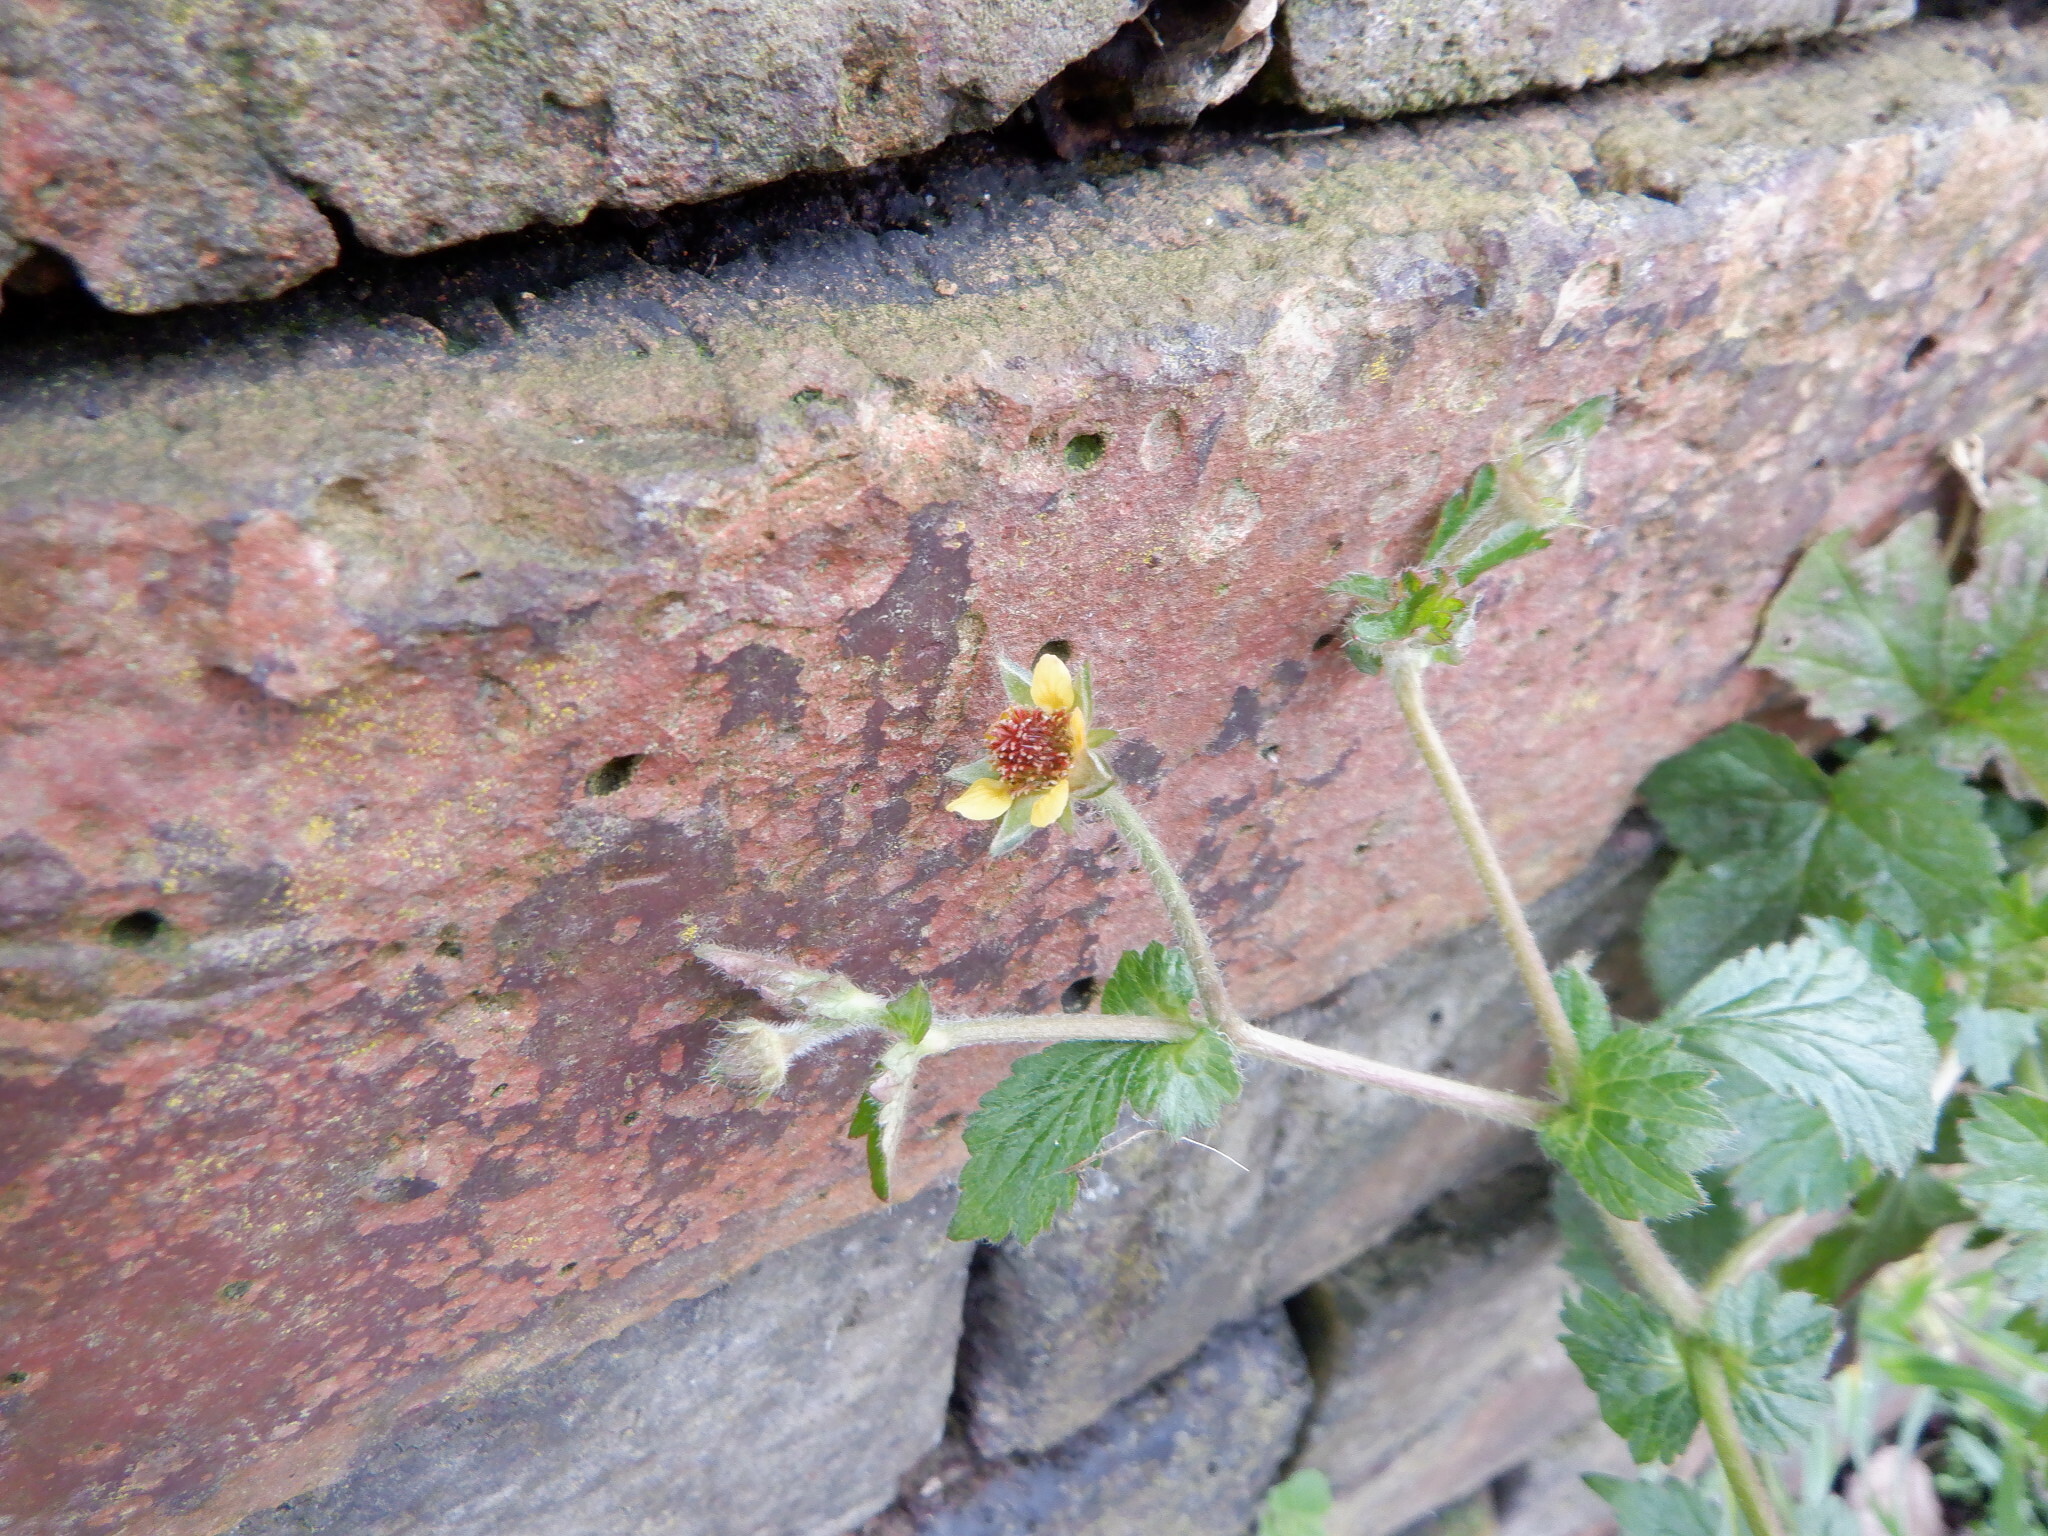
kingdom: Plantae
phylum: Tracheophyta
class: Magnoliopsida
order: Rosales
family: Rosaceae
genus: Geum
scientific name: Geum urbanum
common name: Wood avens
